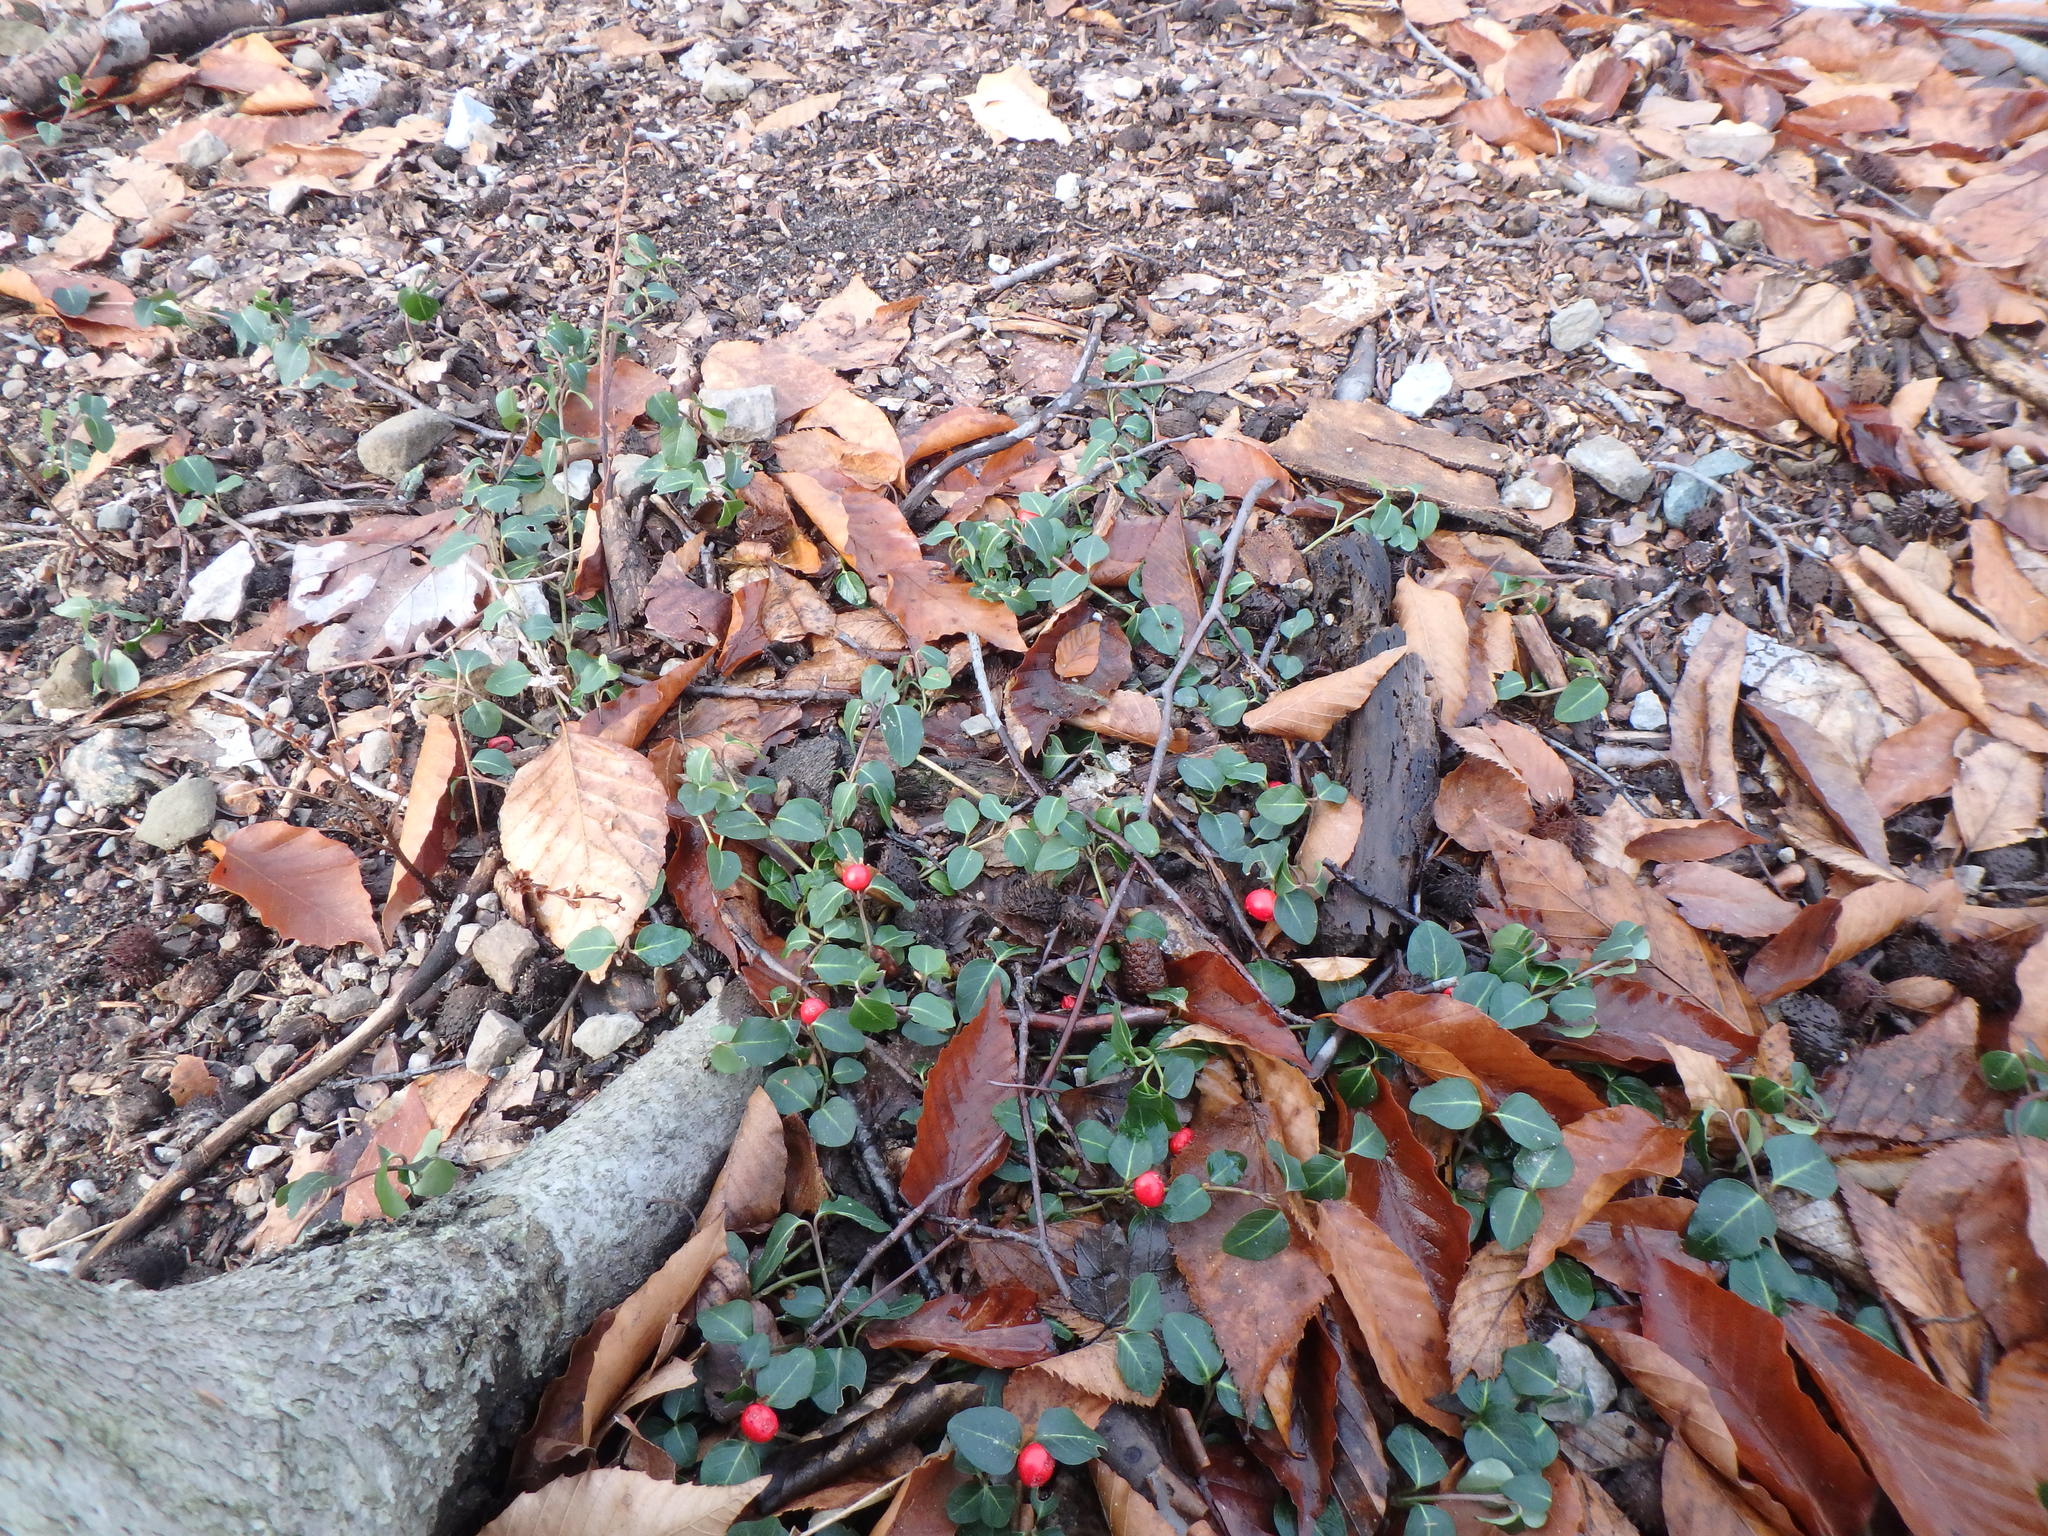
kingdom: Plantae
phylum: Tracheophyta
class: Magnoliopsida
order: Gentianales
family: Rubiaceae
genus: Mitchella
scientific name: Mitchella repens
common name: Partridge-berry
